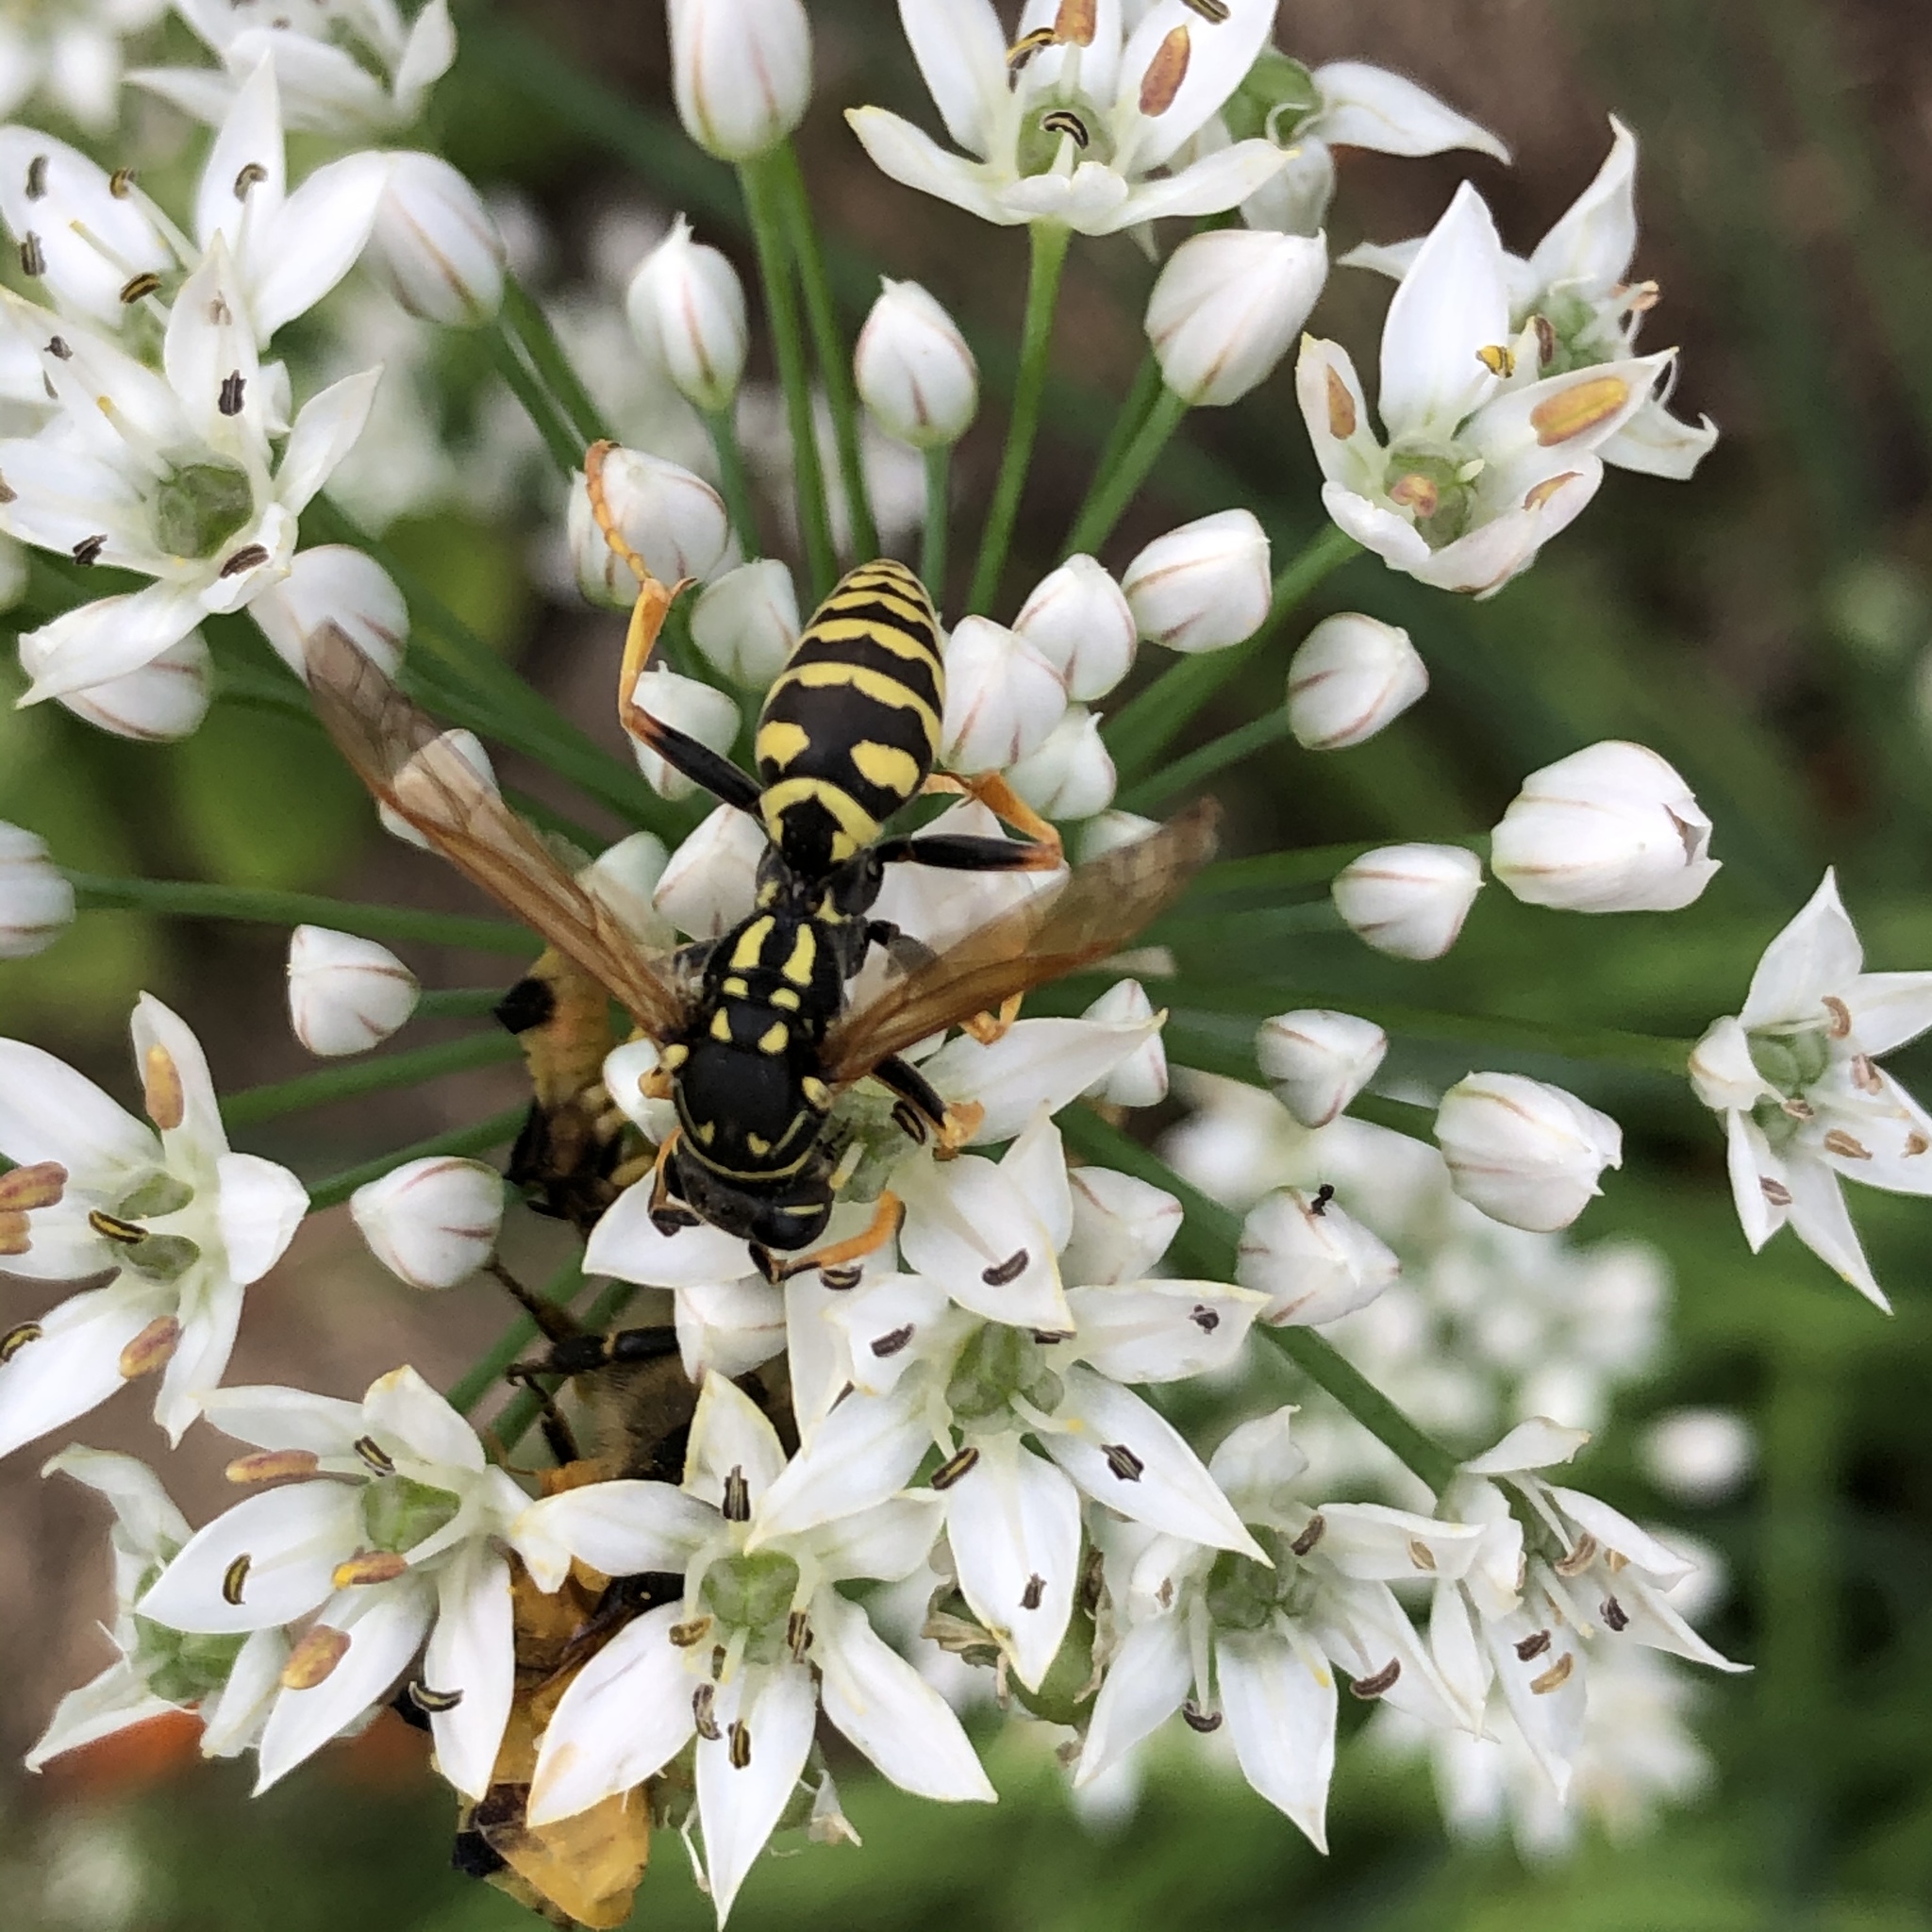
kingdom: Animalia
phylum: Arthropoda
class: Insecta
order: Hymenoptera
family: Eumenidae
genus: Polistes
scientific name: Polistes dominula
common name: Paper wasp
